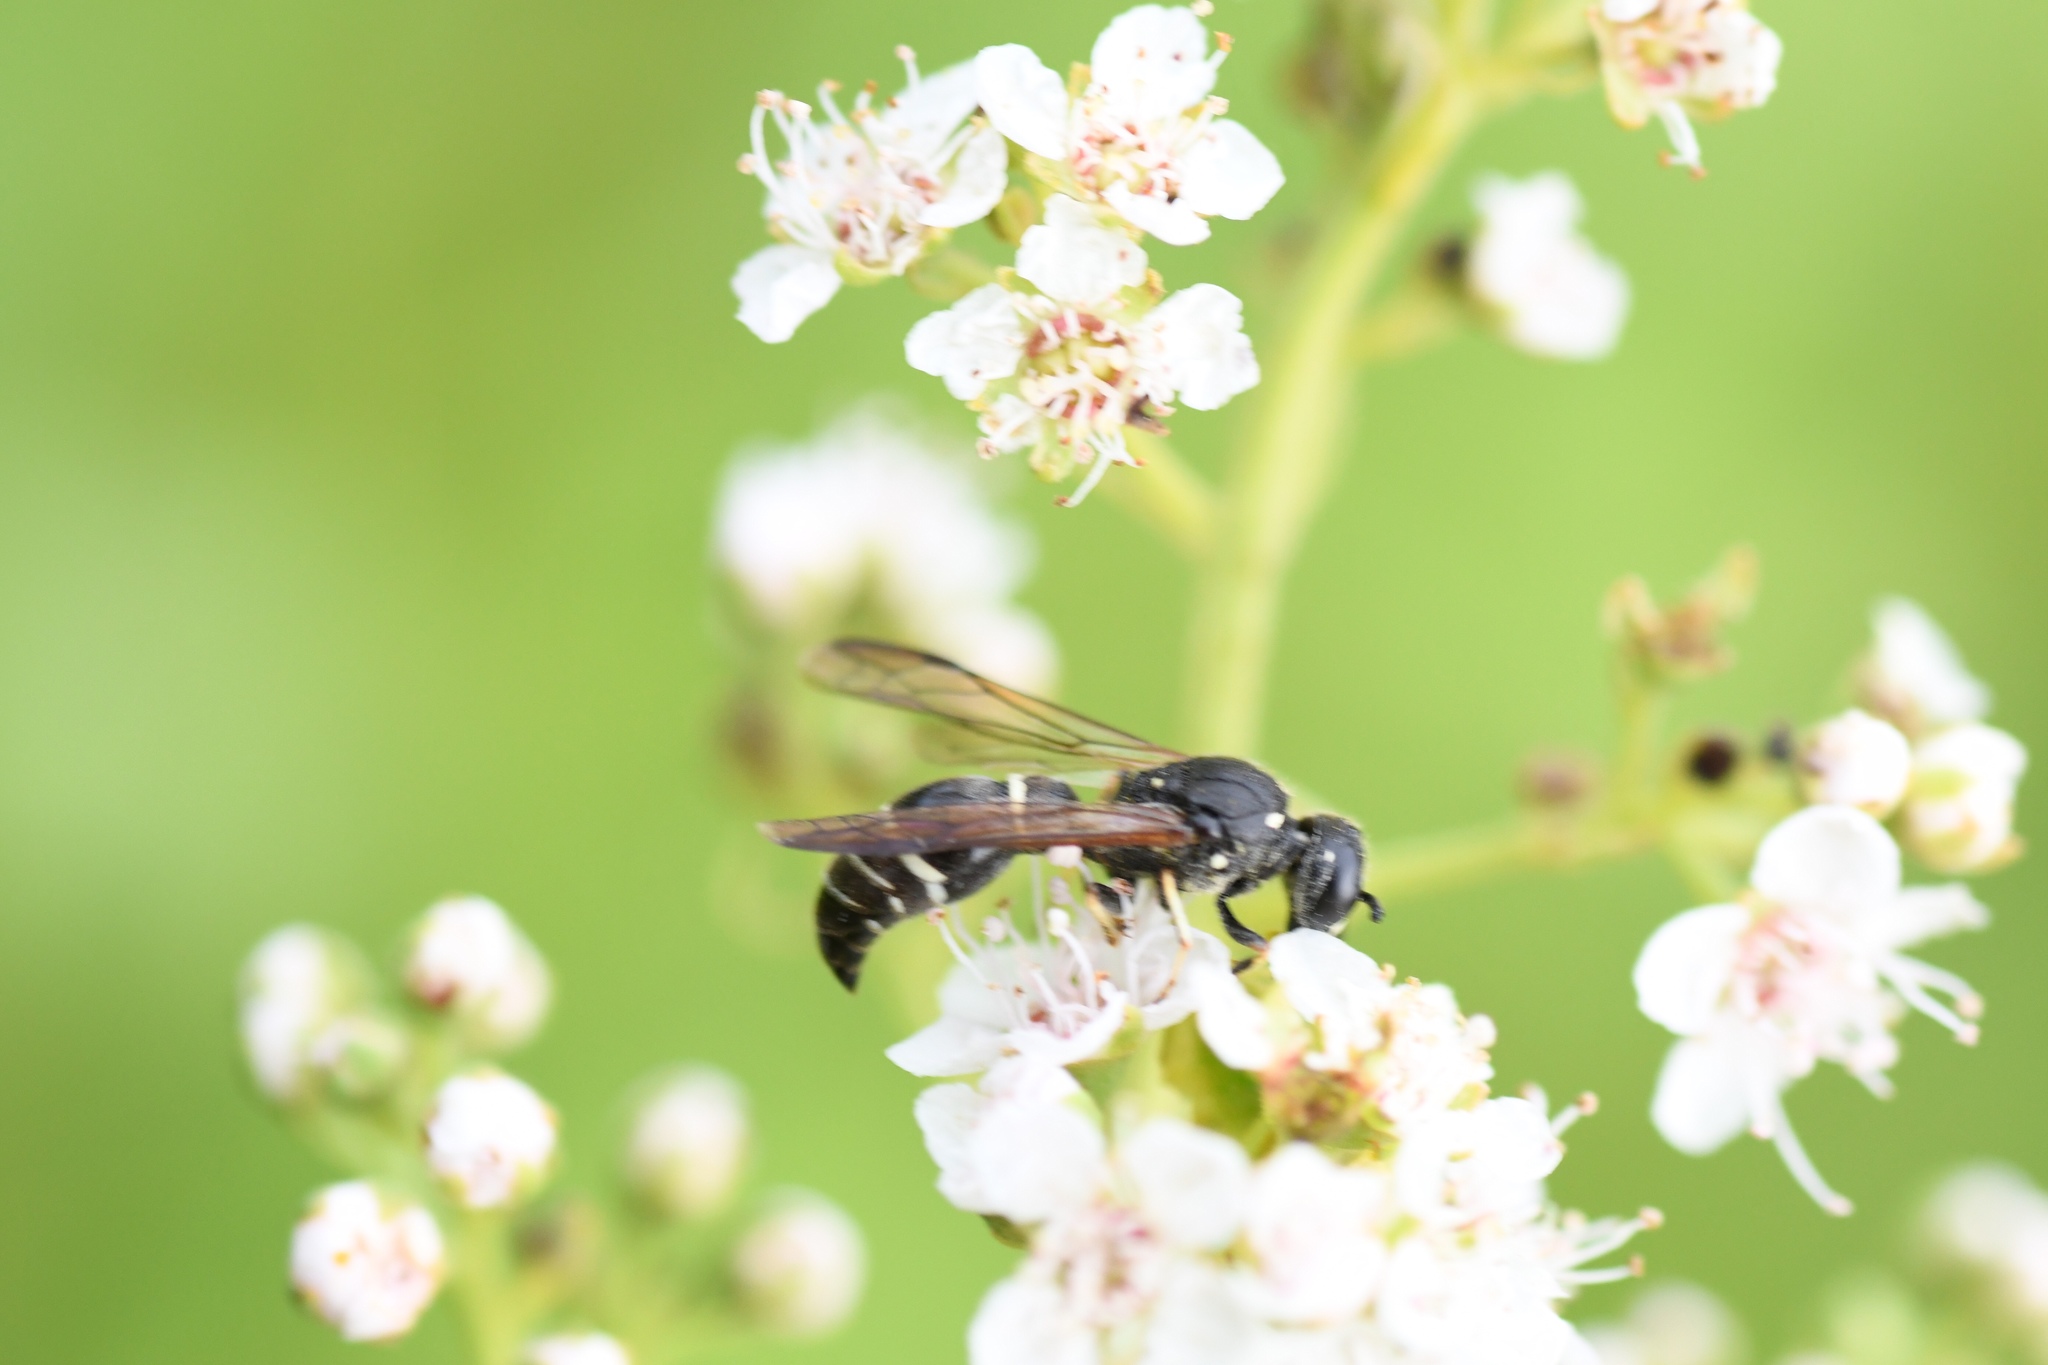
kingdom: Animalia
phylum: Arthropoda
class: Insecta
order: Hymenoptera
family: Eumenidae
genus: Symmorphus
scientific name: Symmorphus
